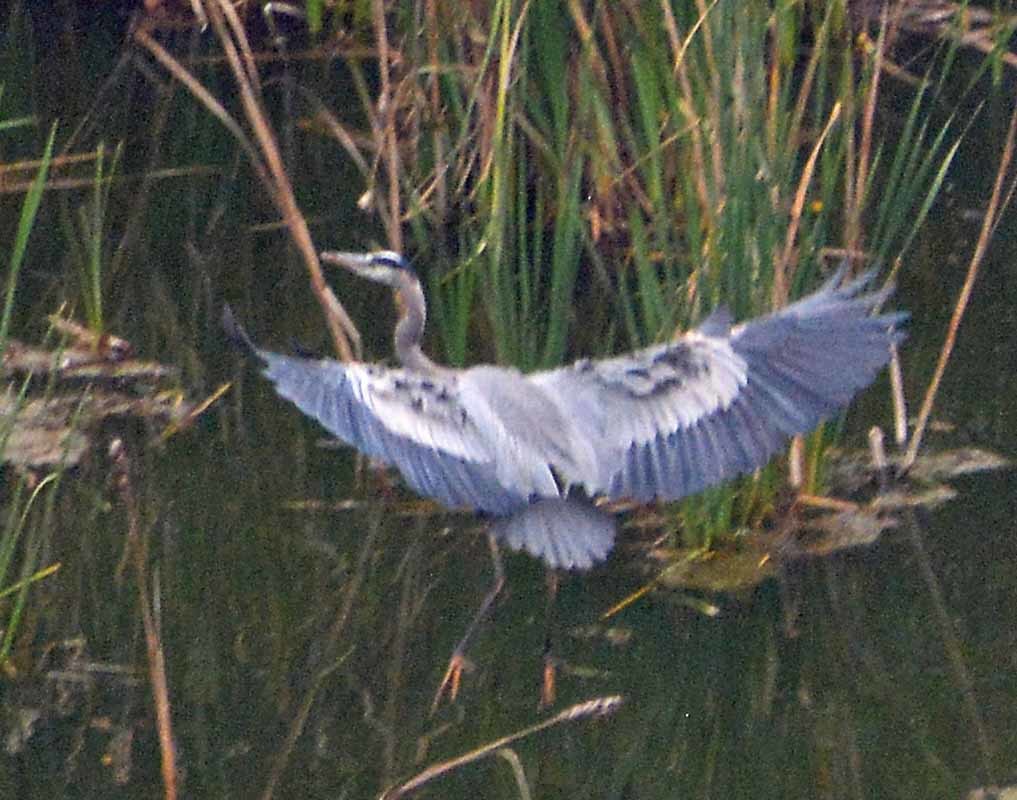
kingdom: Animalia
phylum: Chordata
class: Aves
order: Pelecaniformes
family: Ardeidae
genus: Ardea
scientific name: Ardea herodias
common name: Great blue heron
